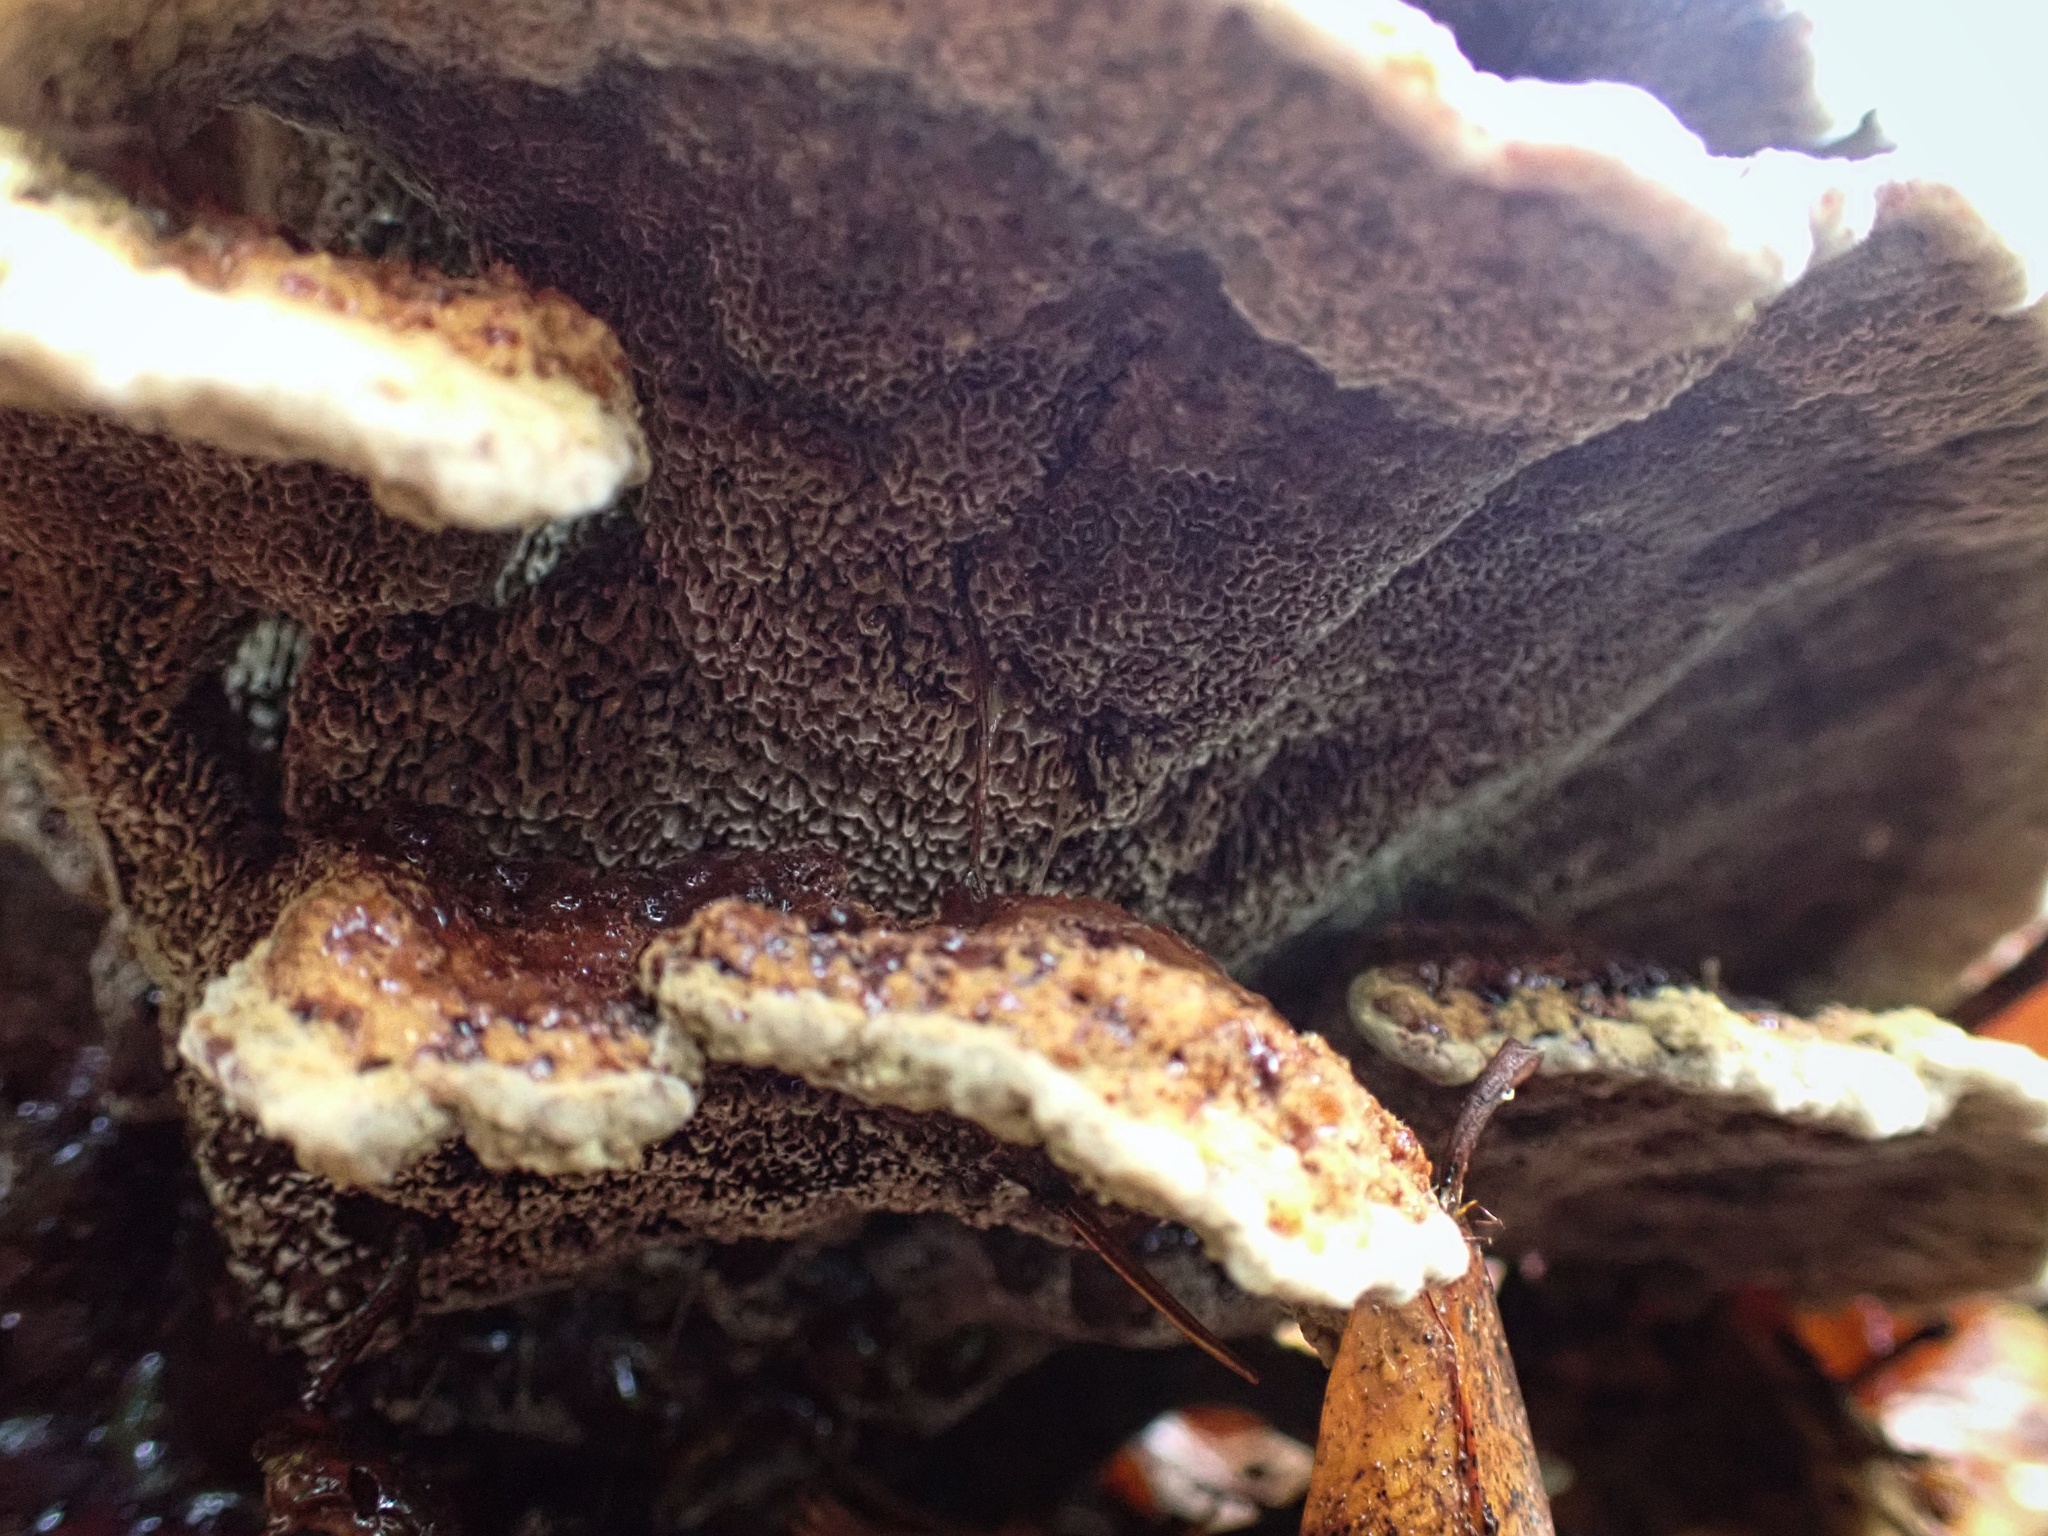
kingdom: Fungi
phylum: Basidiomycota
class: Agaricomycetes
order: Polyporales
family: Laetiporaceae
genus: Phaeolus
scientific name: Phaeolus schweinitzii
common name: Dyer's mazegill
